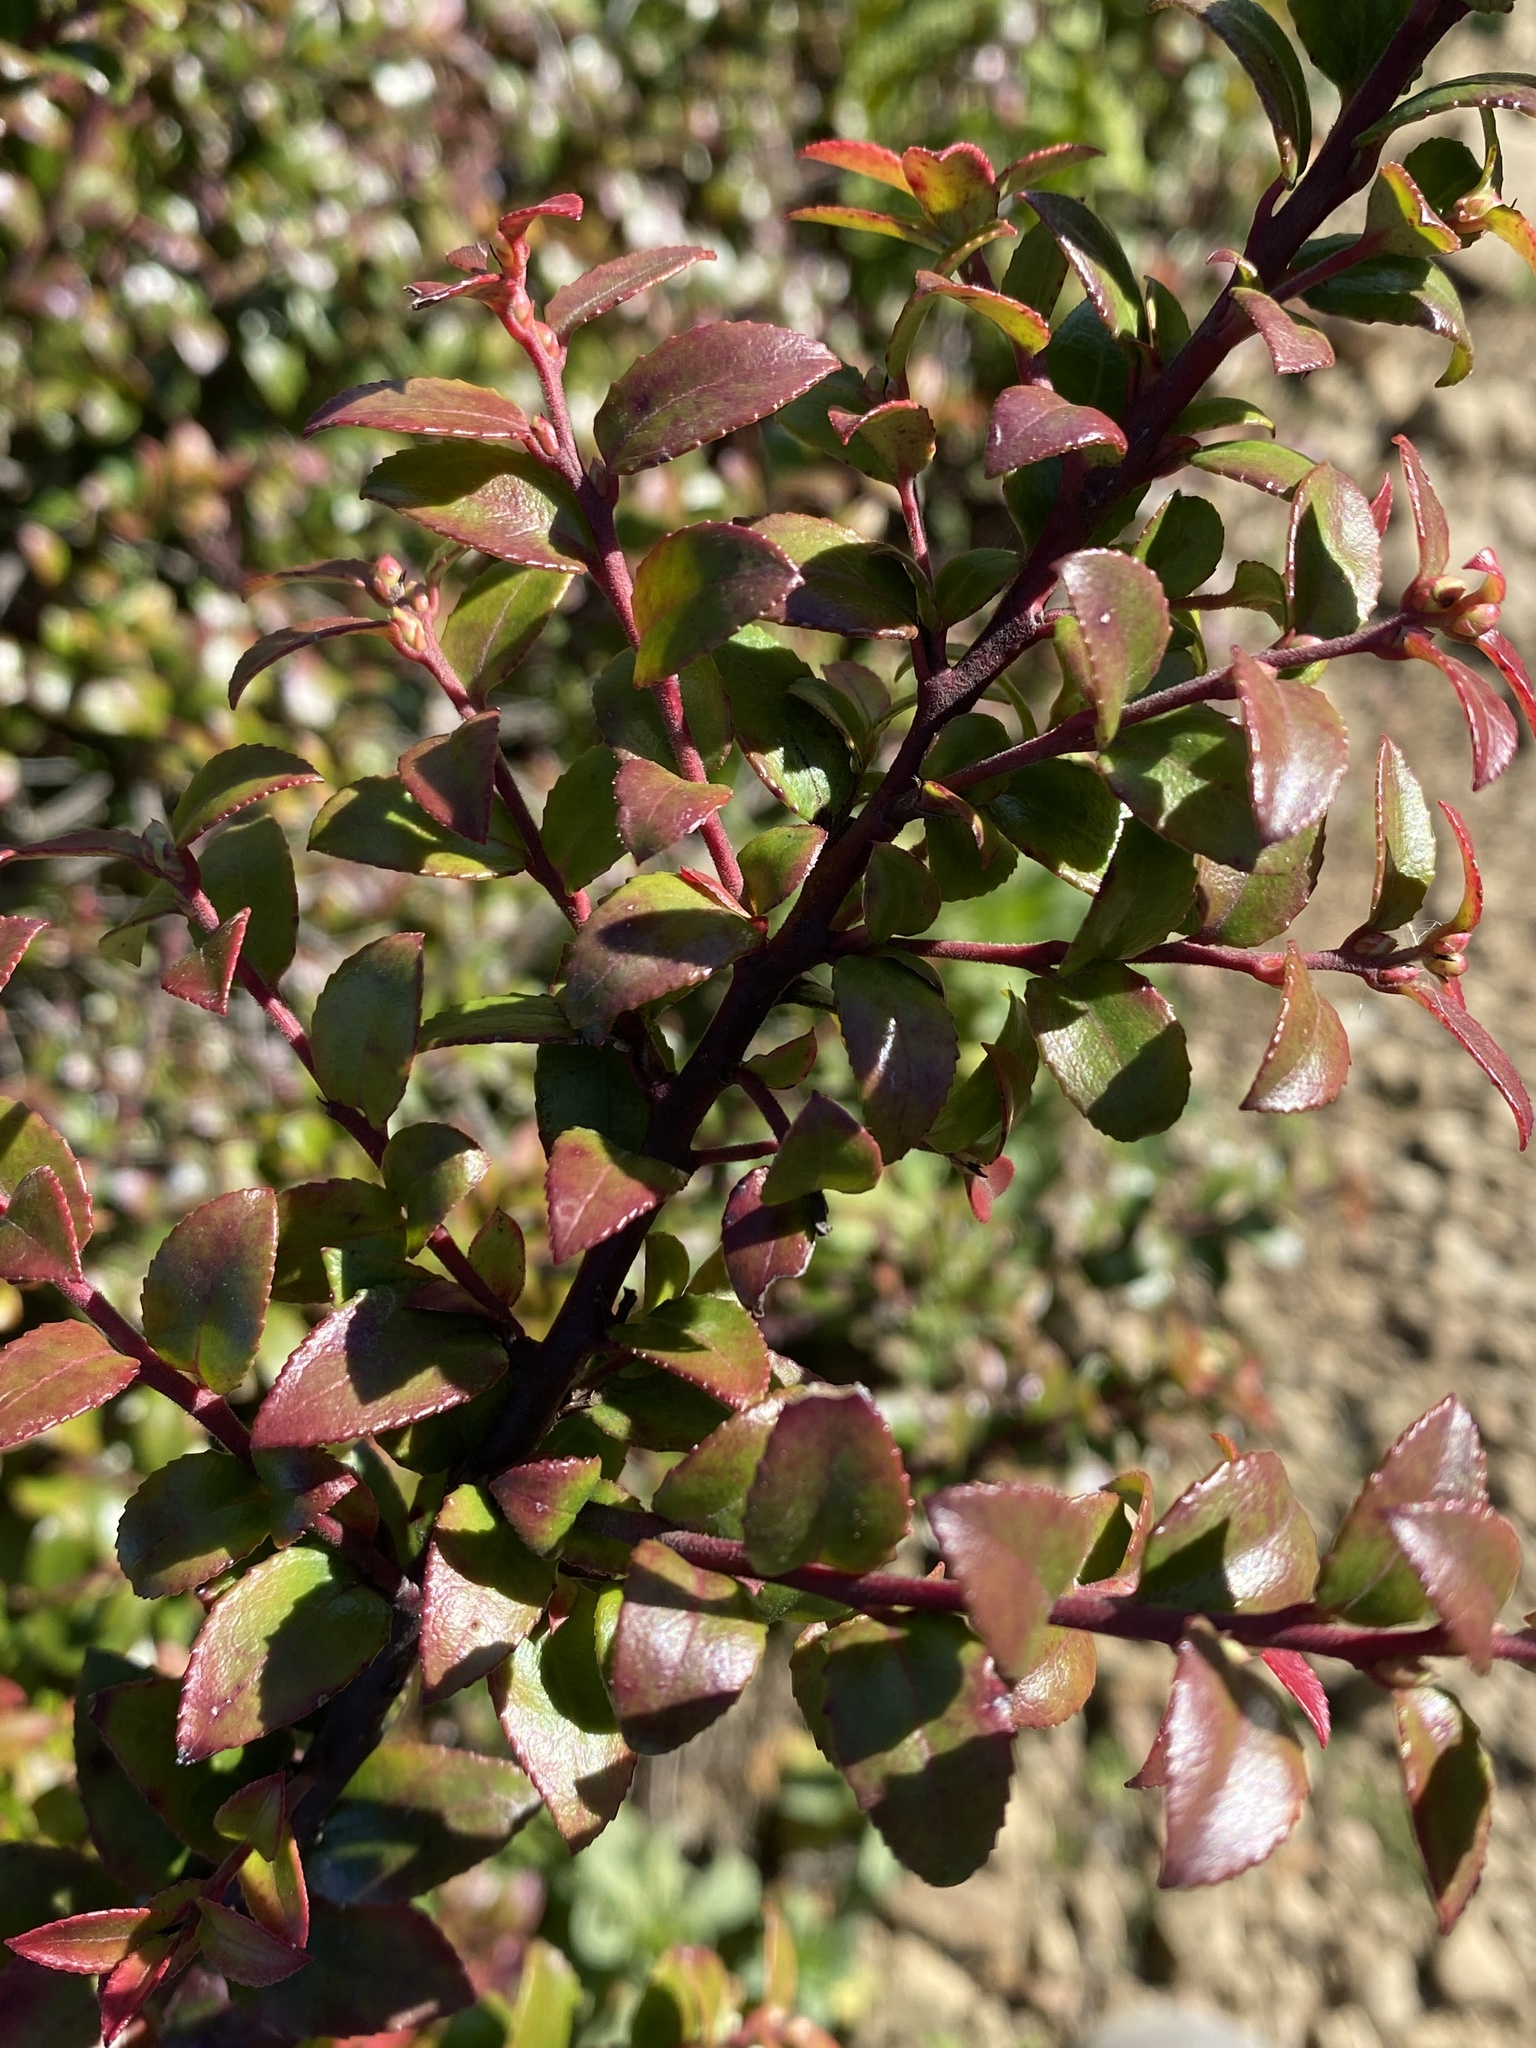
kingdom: Plantae
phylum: Tracheophyta
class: Magnoliopsida
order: Ericales
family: Ericaceae
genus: Vaccinium
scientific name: Vaccinium ovatum
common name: California-huckleberry
